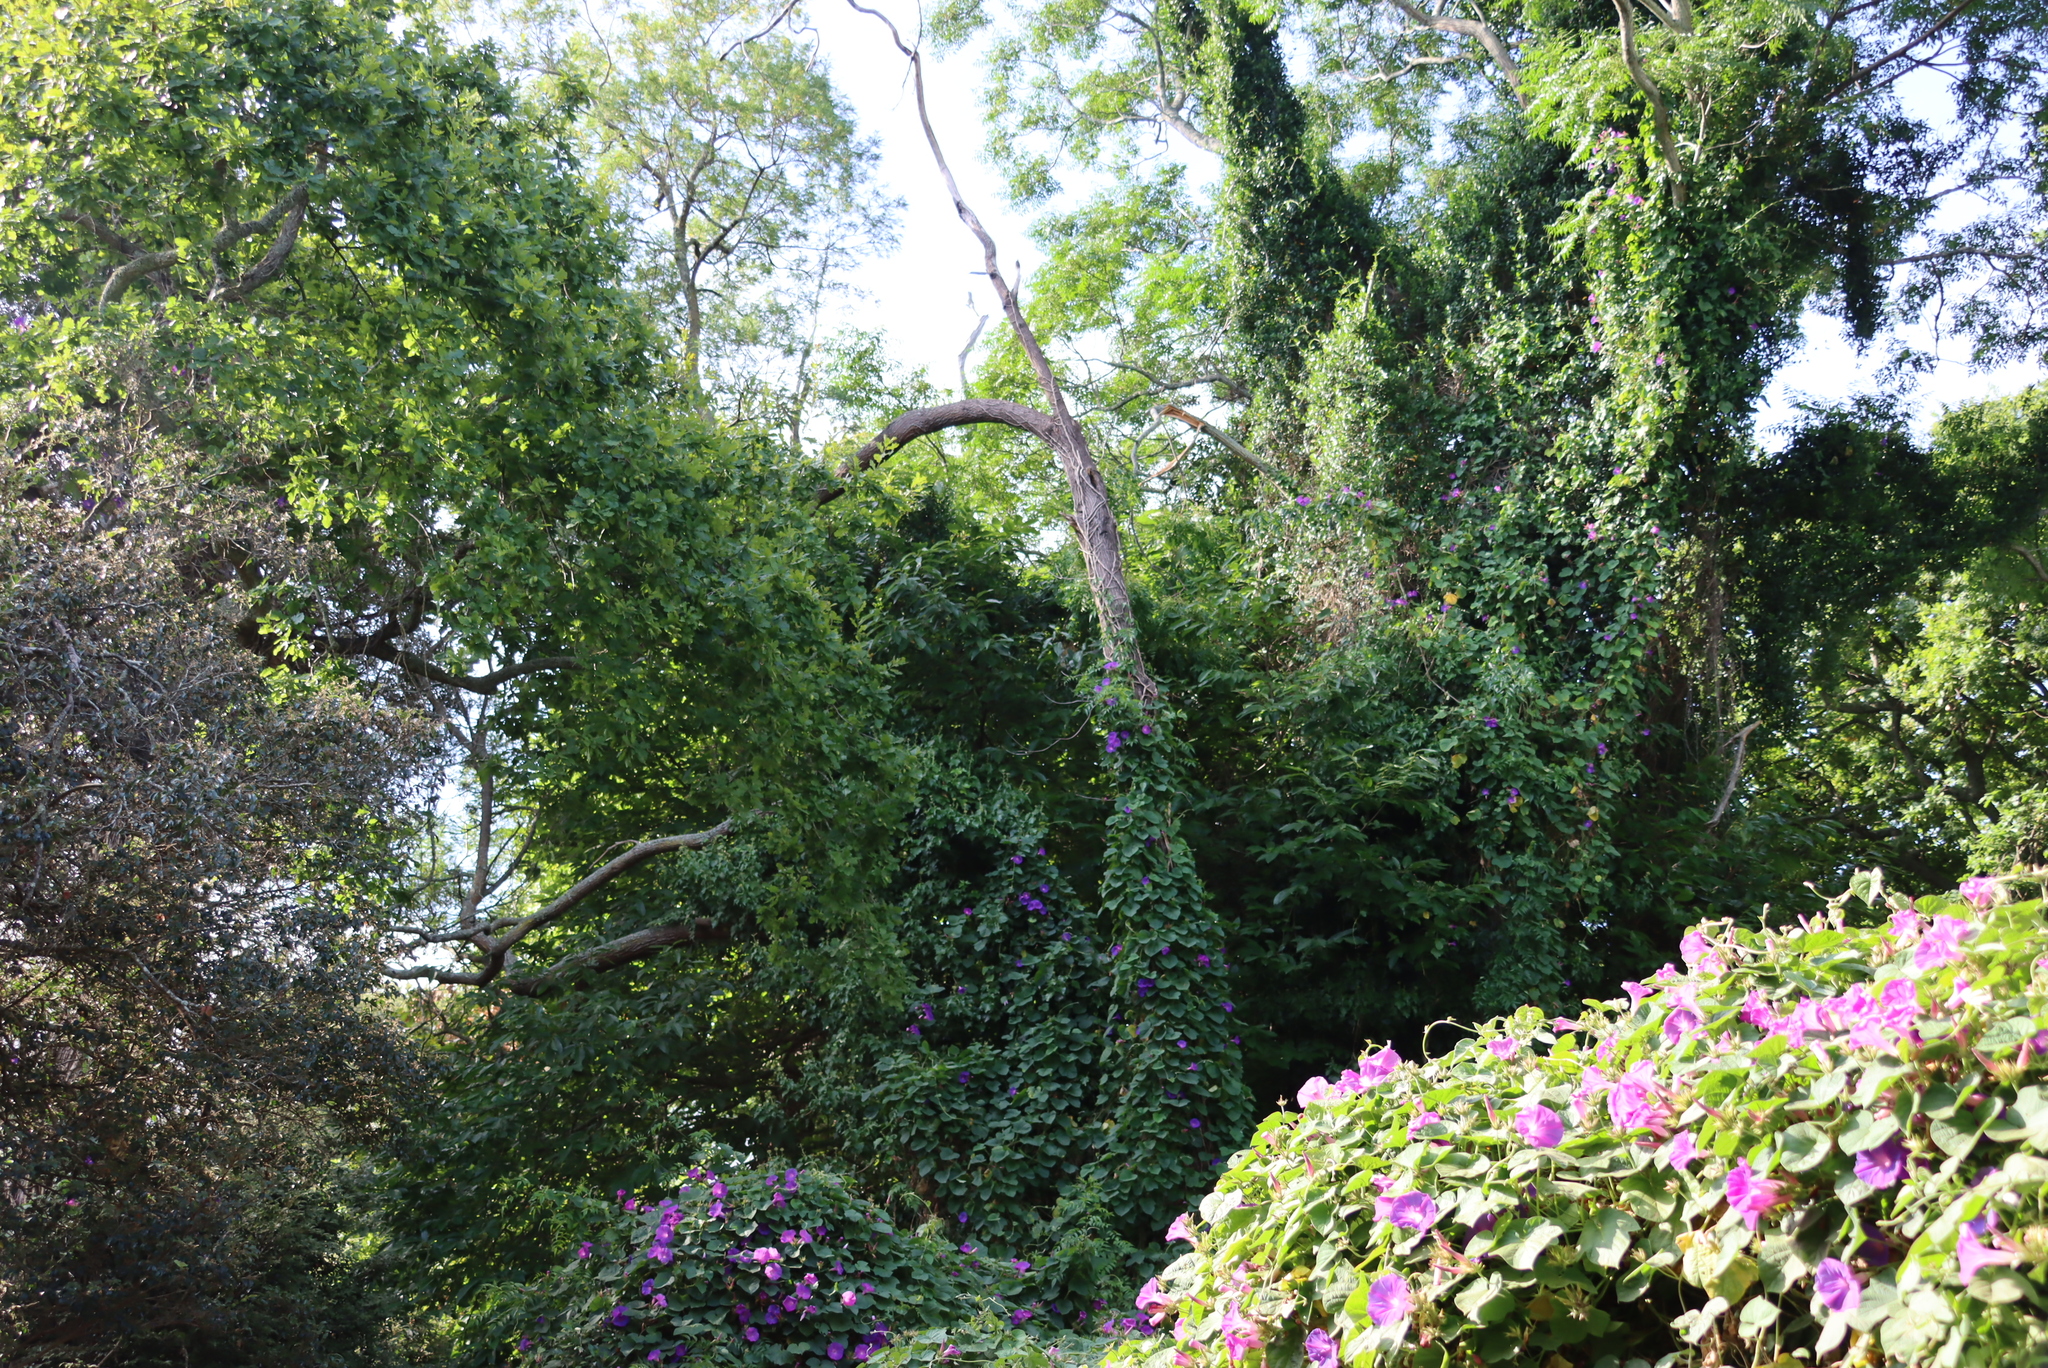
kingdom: Plantae
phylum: Tracheophyta
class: Magnoliopsida
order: Fagales
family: Fagaceae
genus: Castanea
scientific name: Castanea sativa
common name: Sweet chestnut
